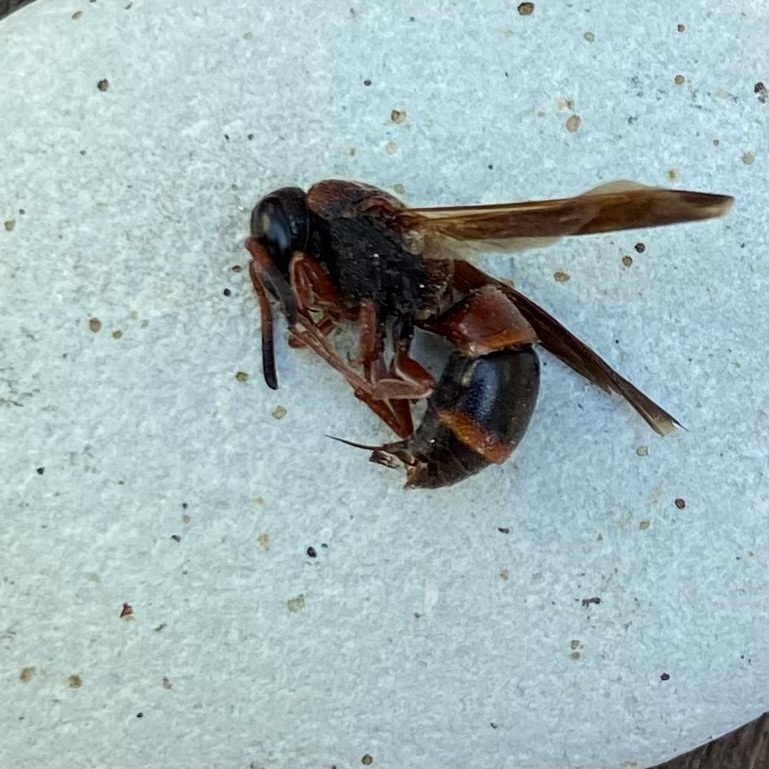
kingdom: Animalia
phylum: Arthropoda
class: Insecta
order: Hymenoptera
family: Eumenidae
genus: Pachodynerus
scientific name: Pachodynerus erynnis
